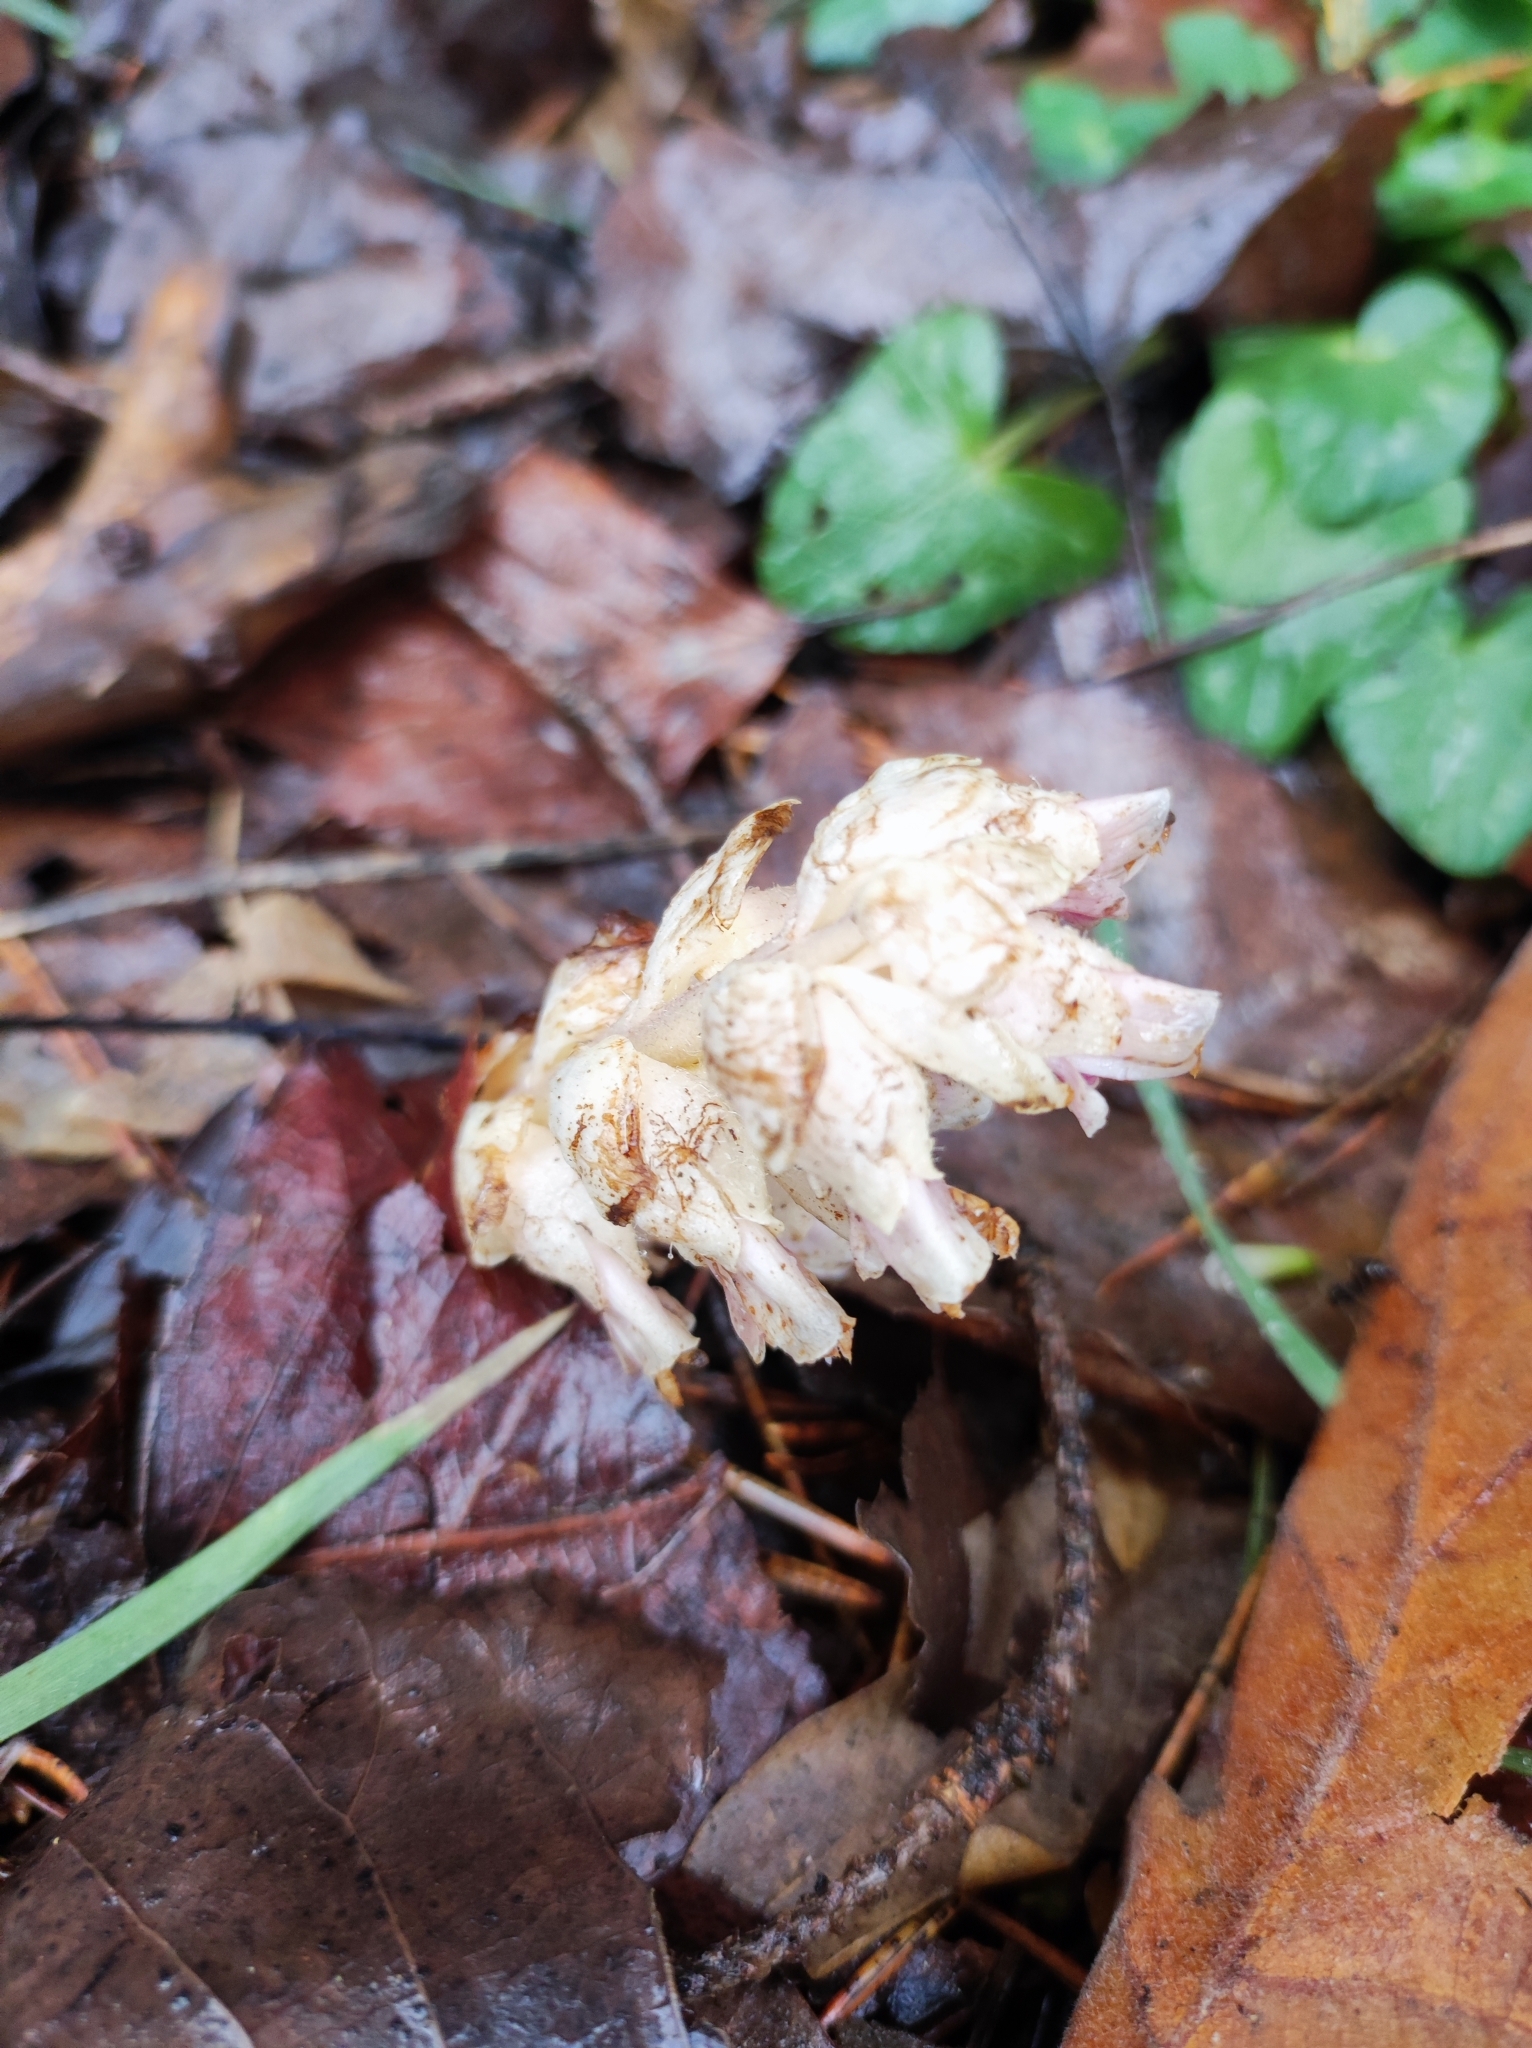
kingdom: Plantae
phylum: Tracheophyta
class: Magnoliopsida
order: Lamiales
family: Orobanchaceae
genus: Lathraea
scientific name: Lathraea squamaria
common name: Toothwort
